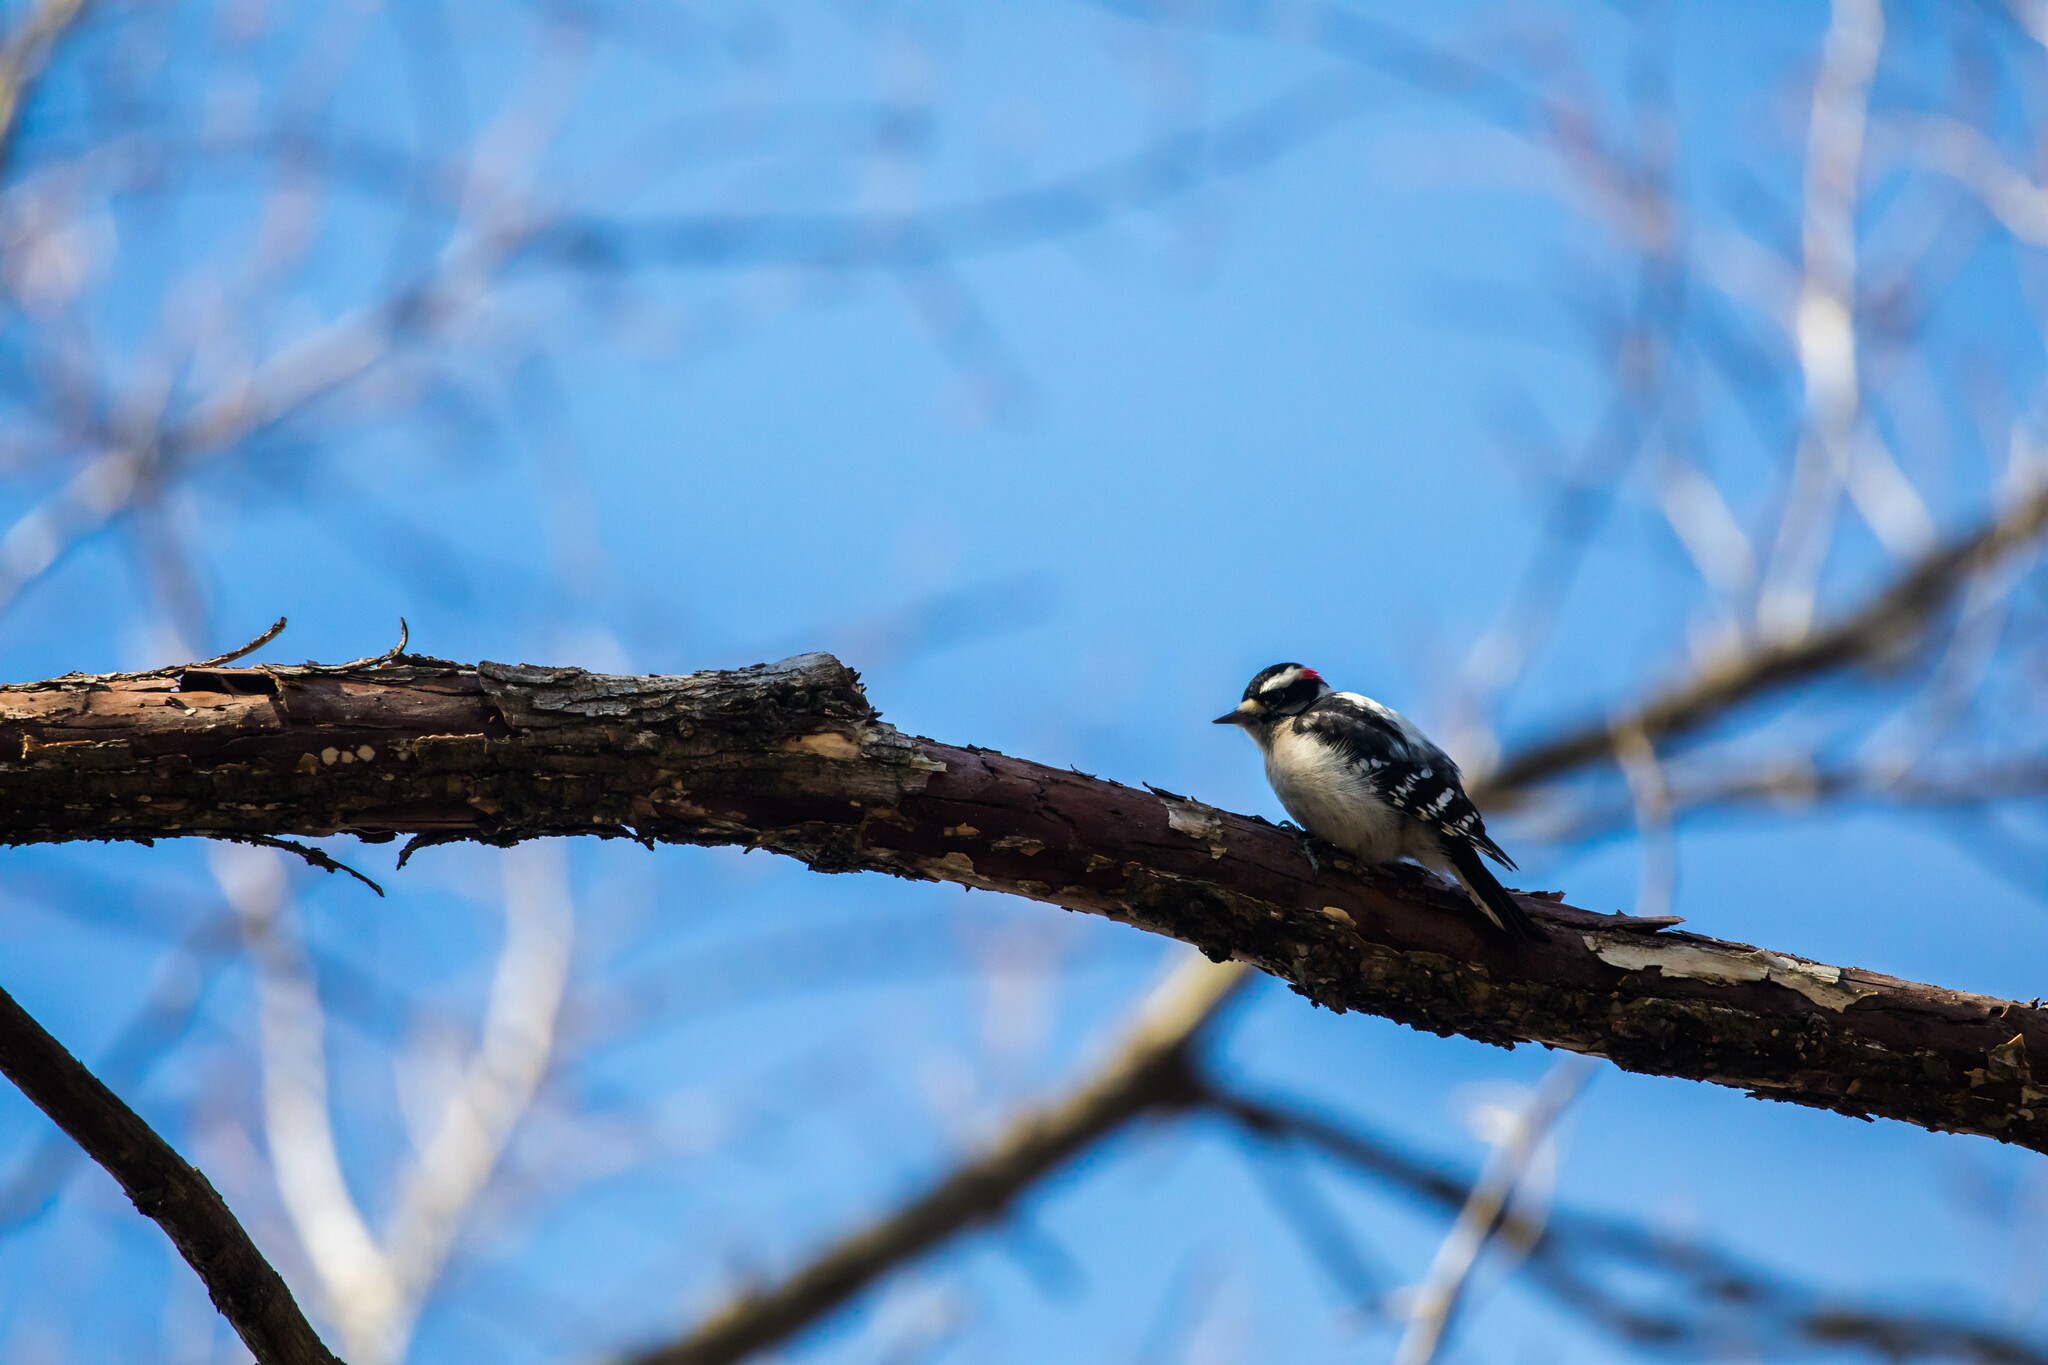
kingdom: Animalia
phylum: Chordata
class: Aves
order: Piciformes
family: Picidae
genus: Dryobates
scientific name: Dryobates pubescens
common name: Downy woodpecker
